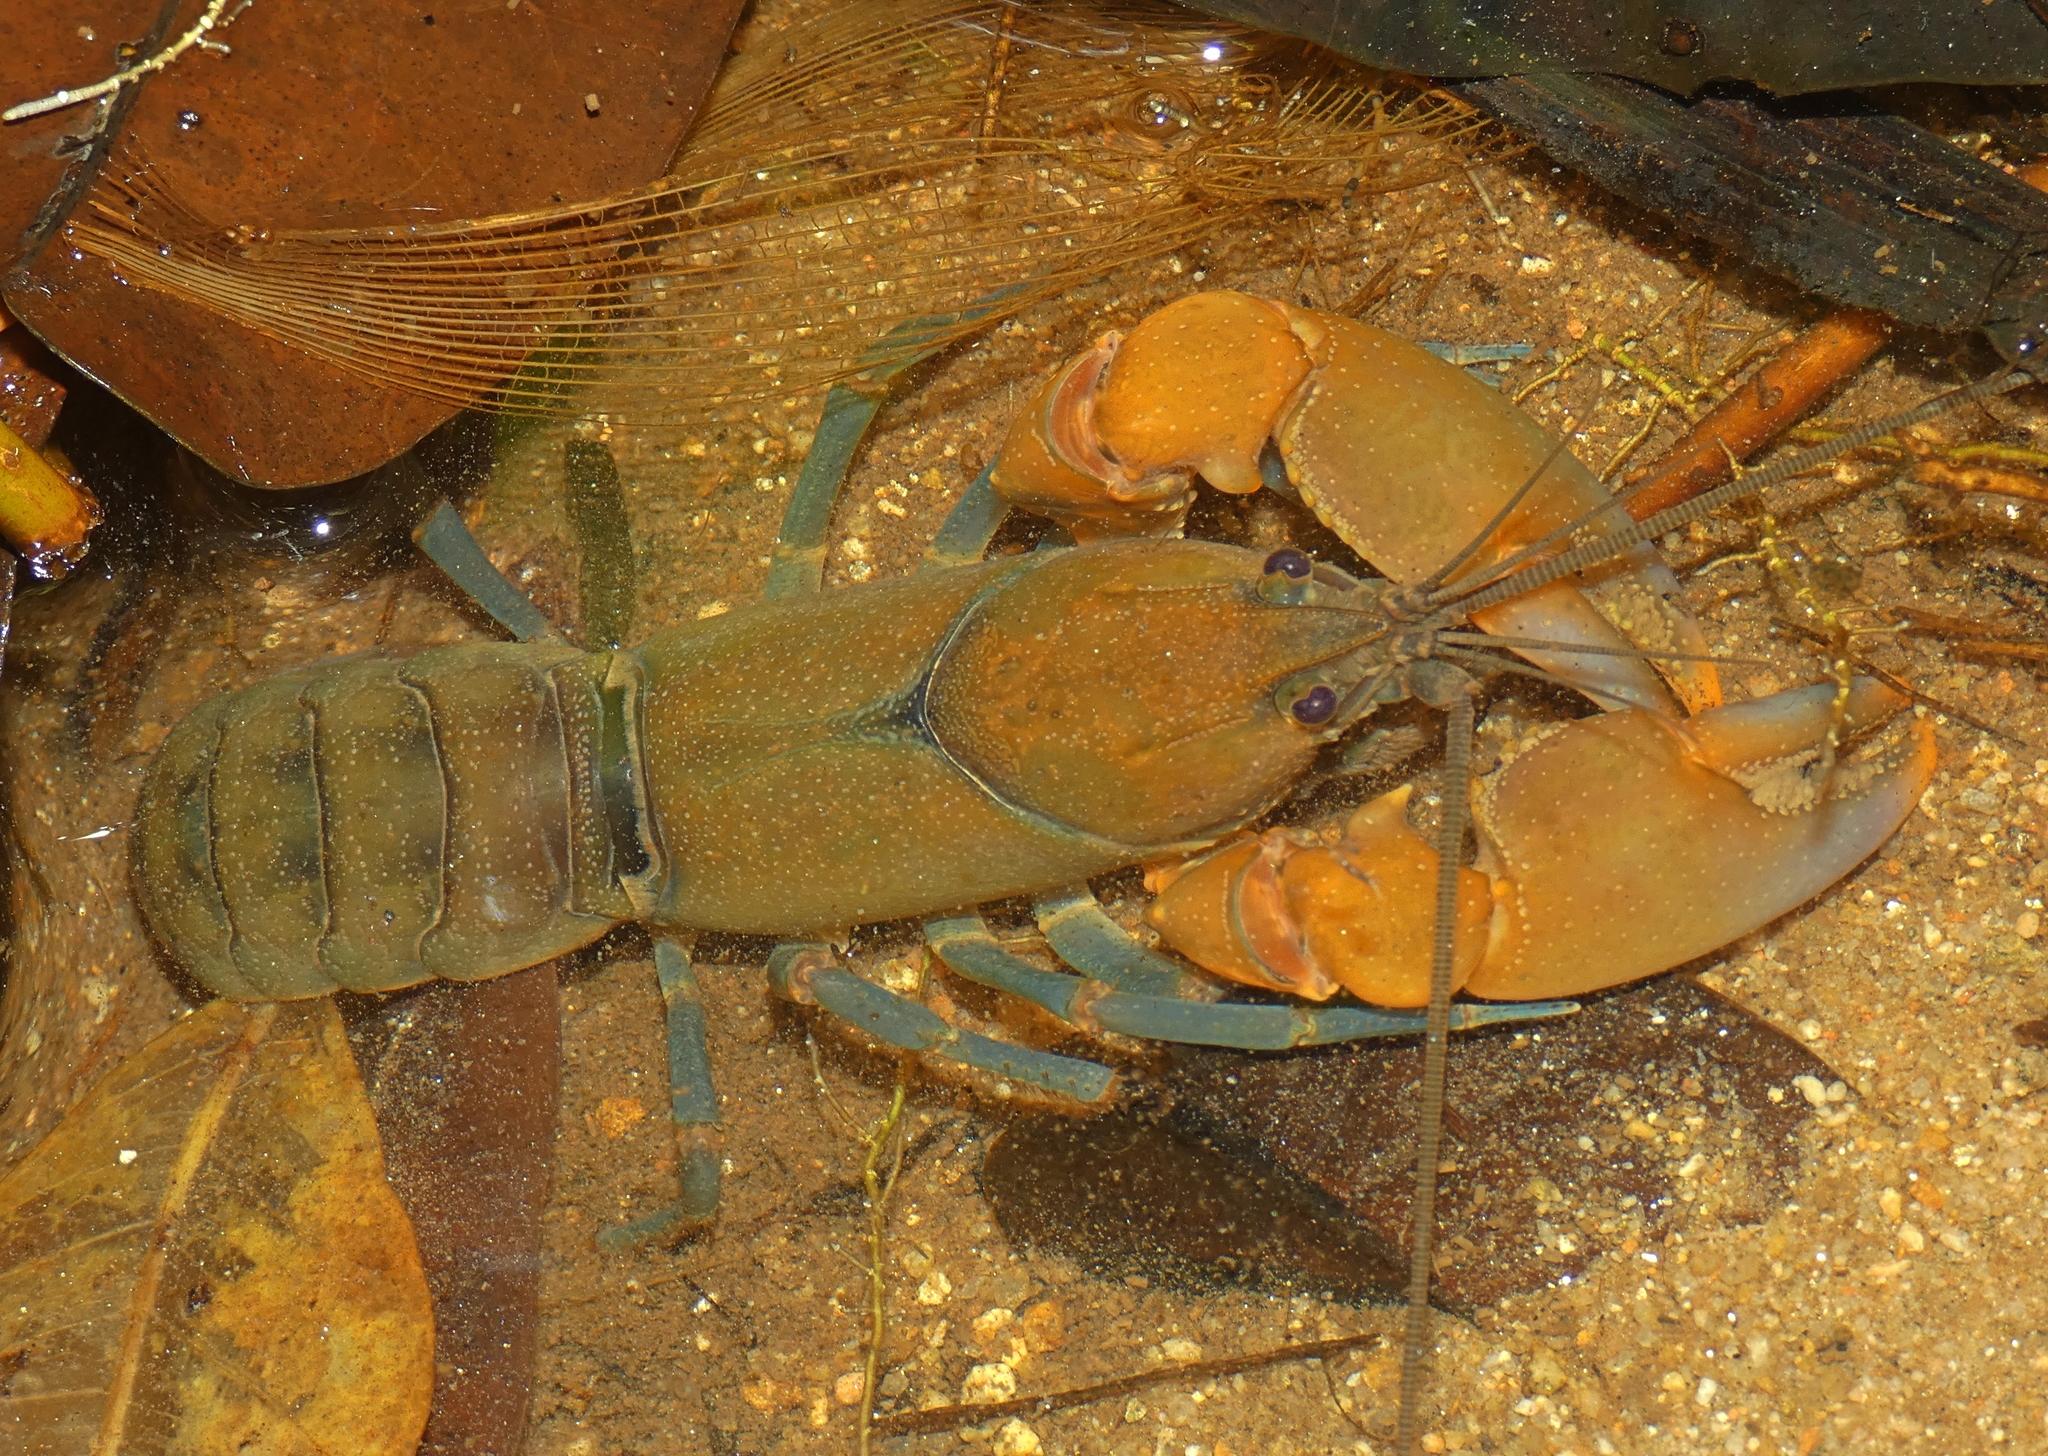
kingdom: Animalia
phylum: Arthropoda
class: Malacostraca
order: Decapoda
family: Parastacidae
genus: Cherax
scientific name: Cherax cairnsensis
